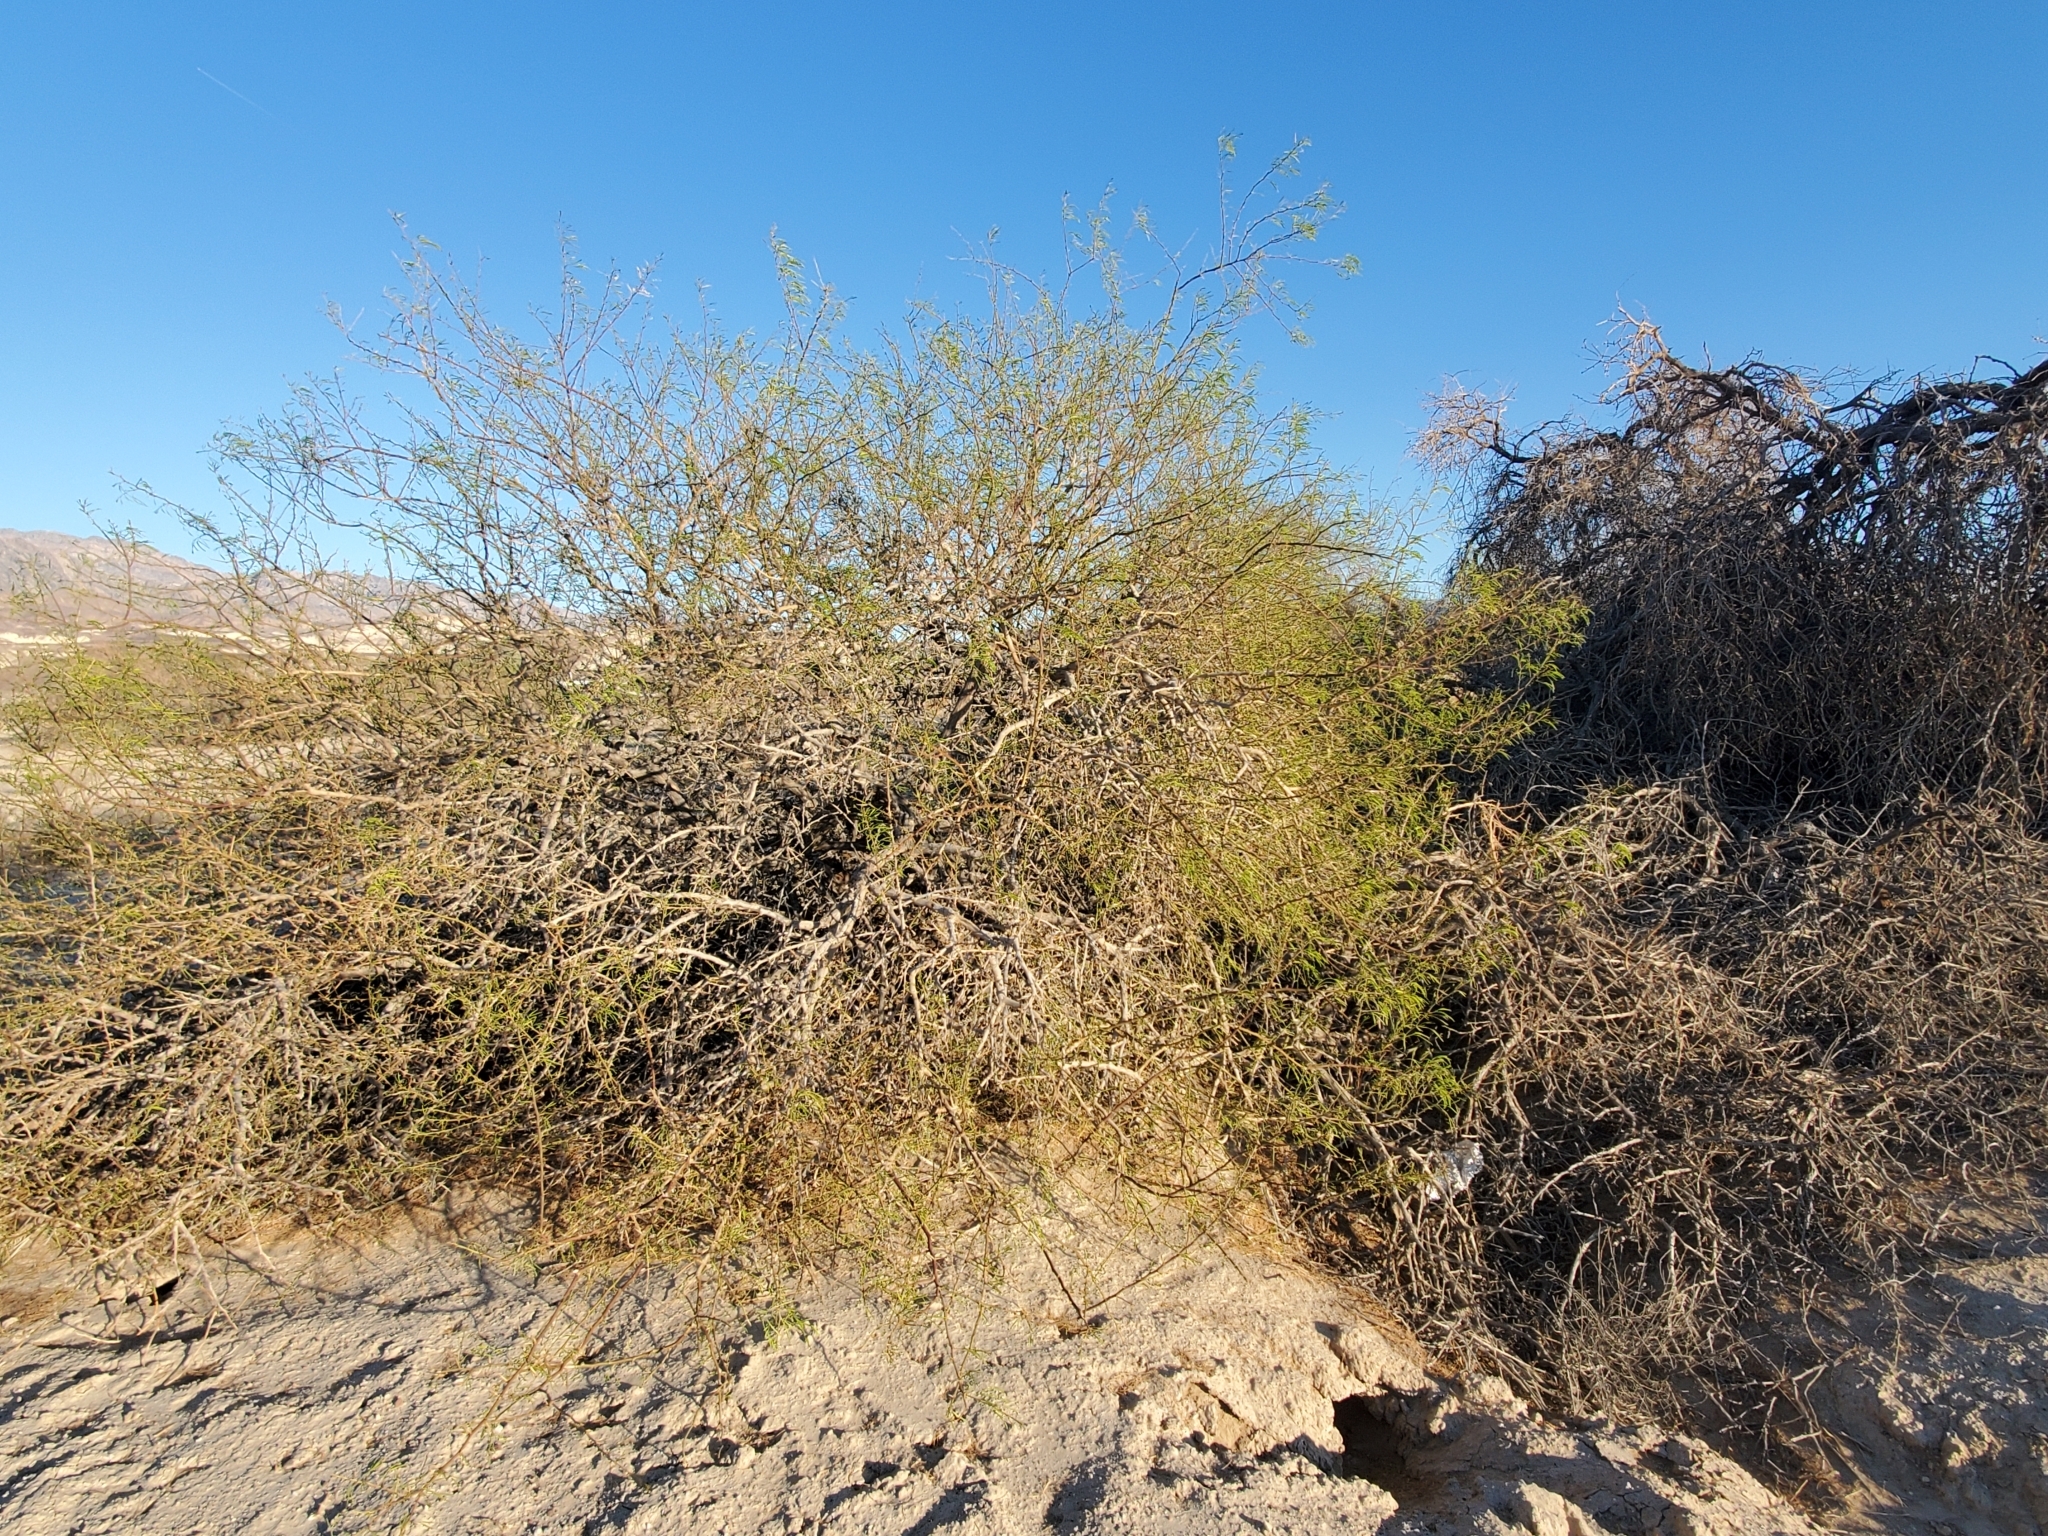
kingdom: Plantae
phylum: Tracheophyta
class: Magnoliopsida
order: Fabales
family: Fabaceae
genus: Prosopis
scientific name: Prosopis pubescens
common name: Screw-bean
